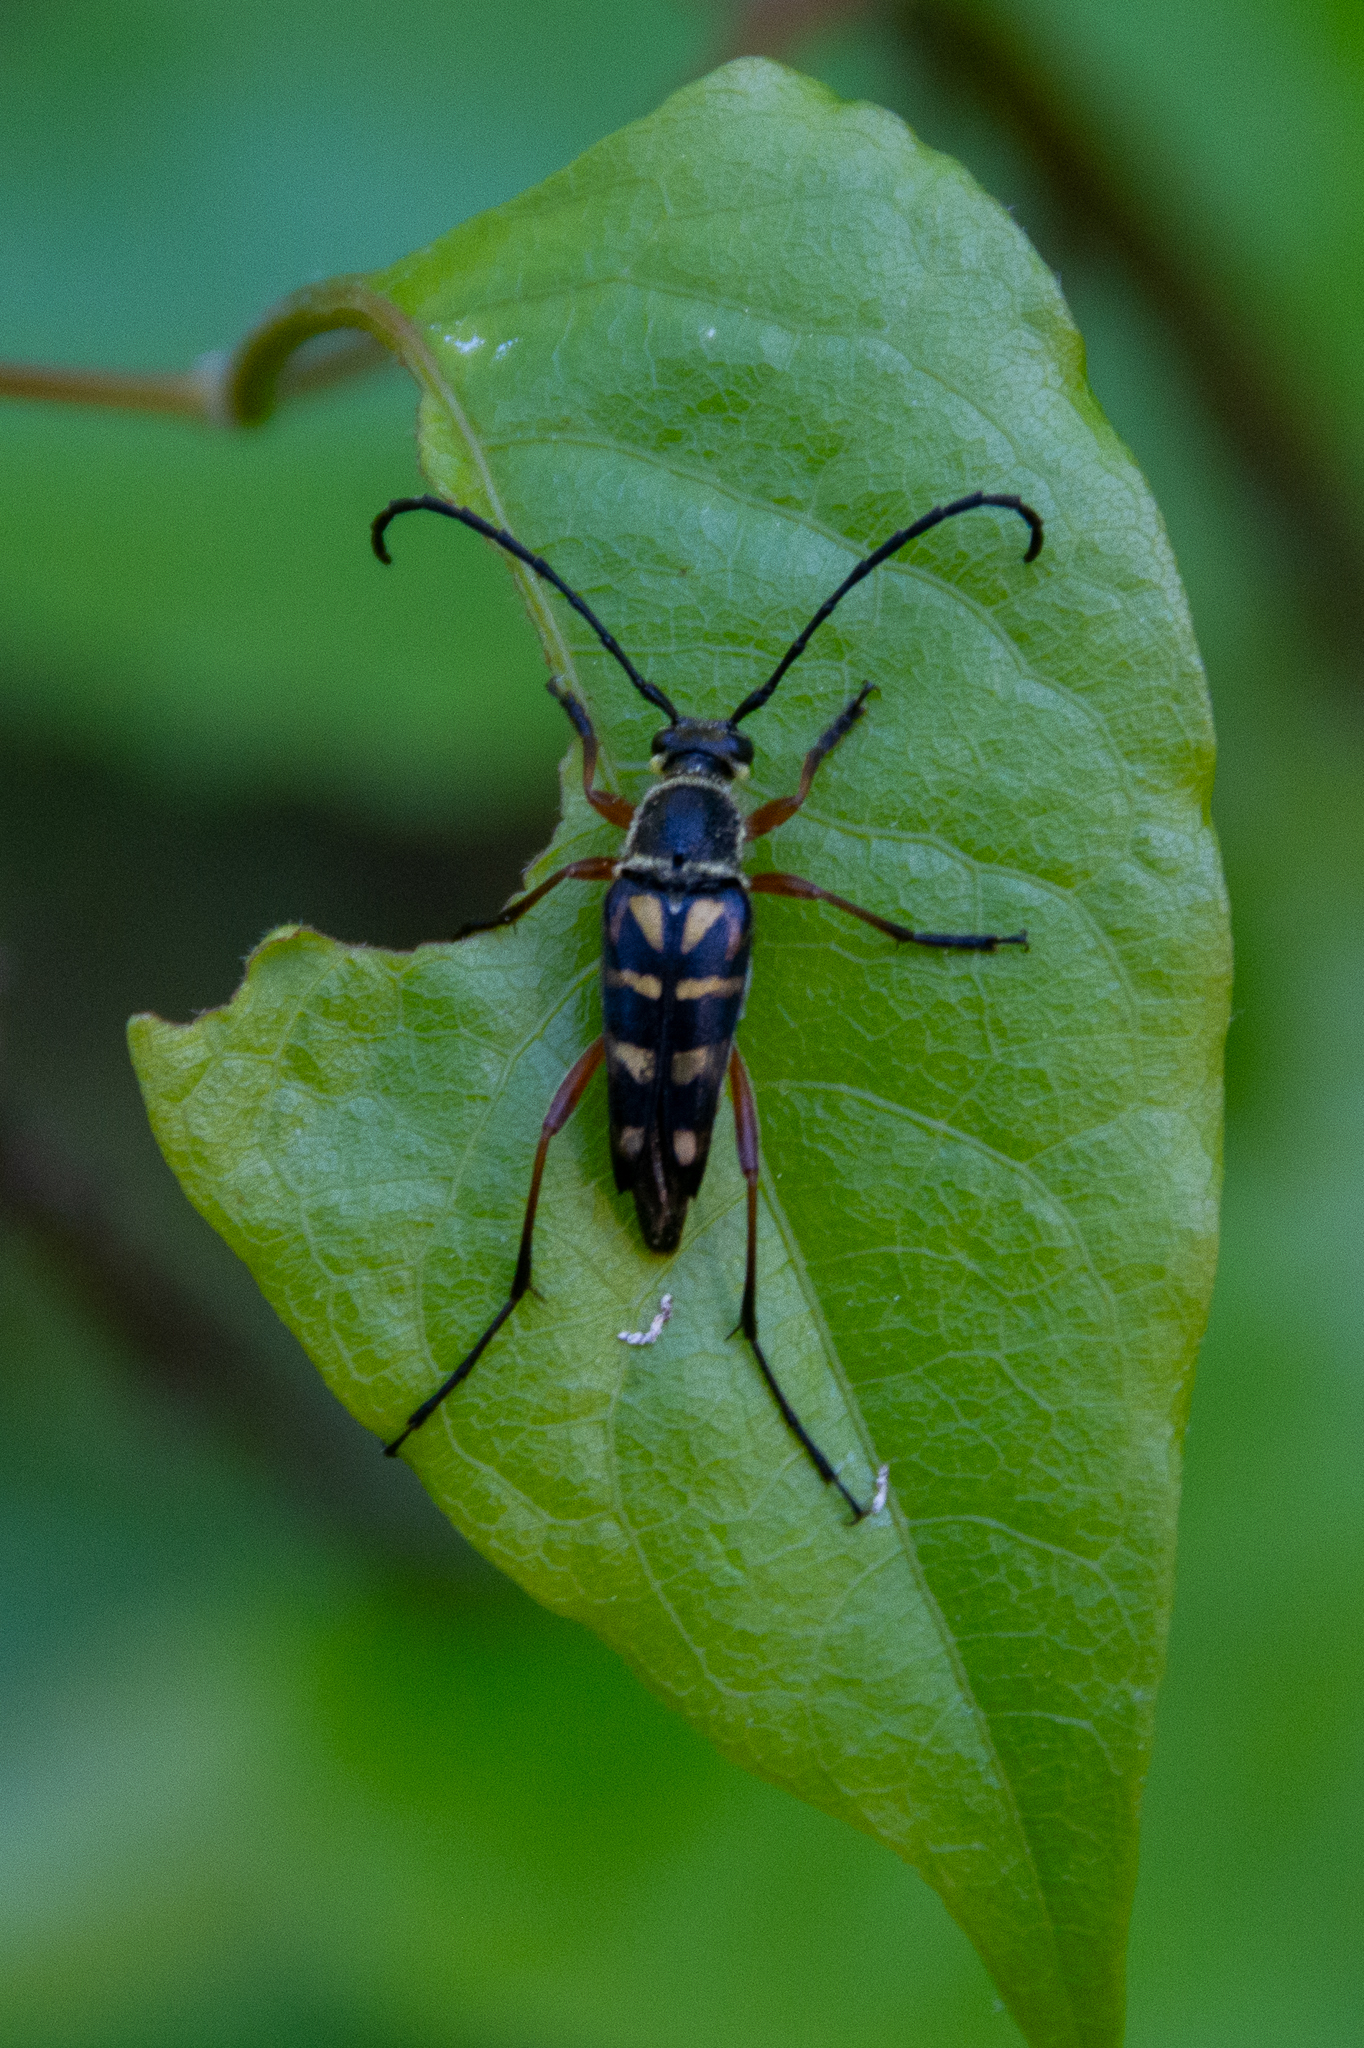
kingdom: Animalia
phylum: Arthropoda
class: Insecta
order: Coleoptera
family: Cerambycidae
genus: Typocerus
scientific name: Typocerus zebra
